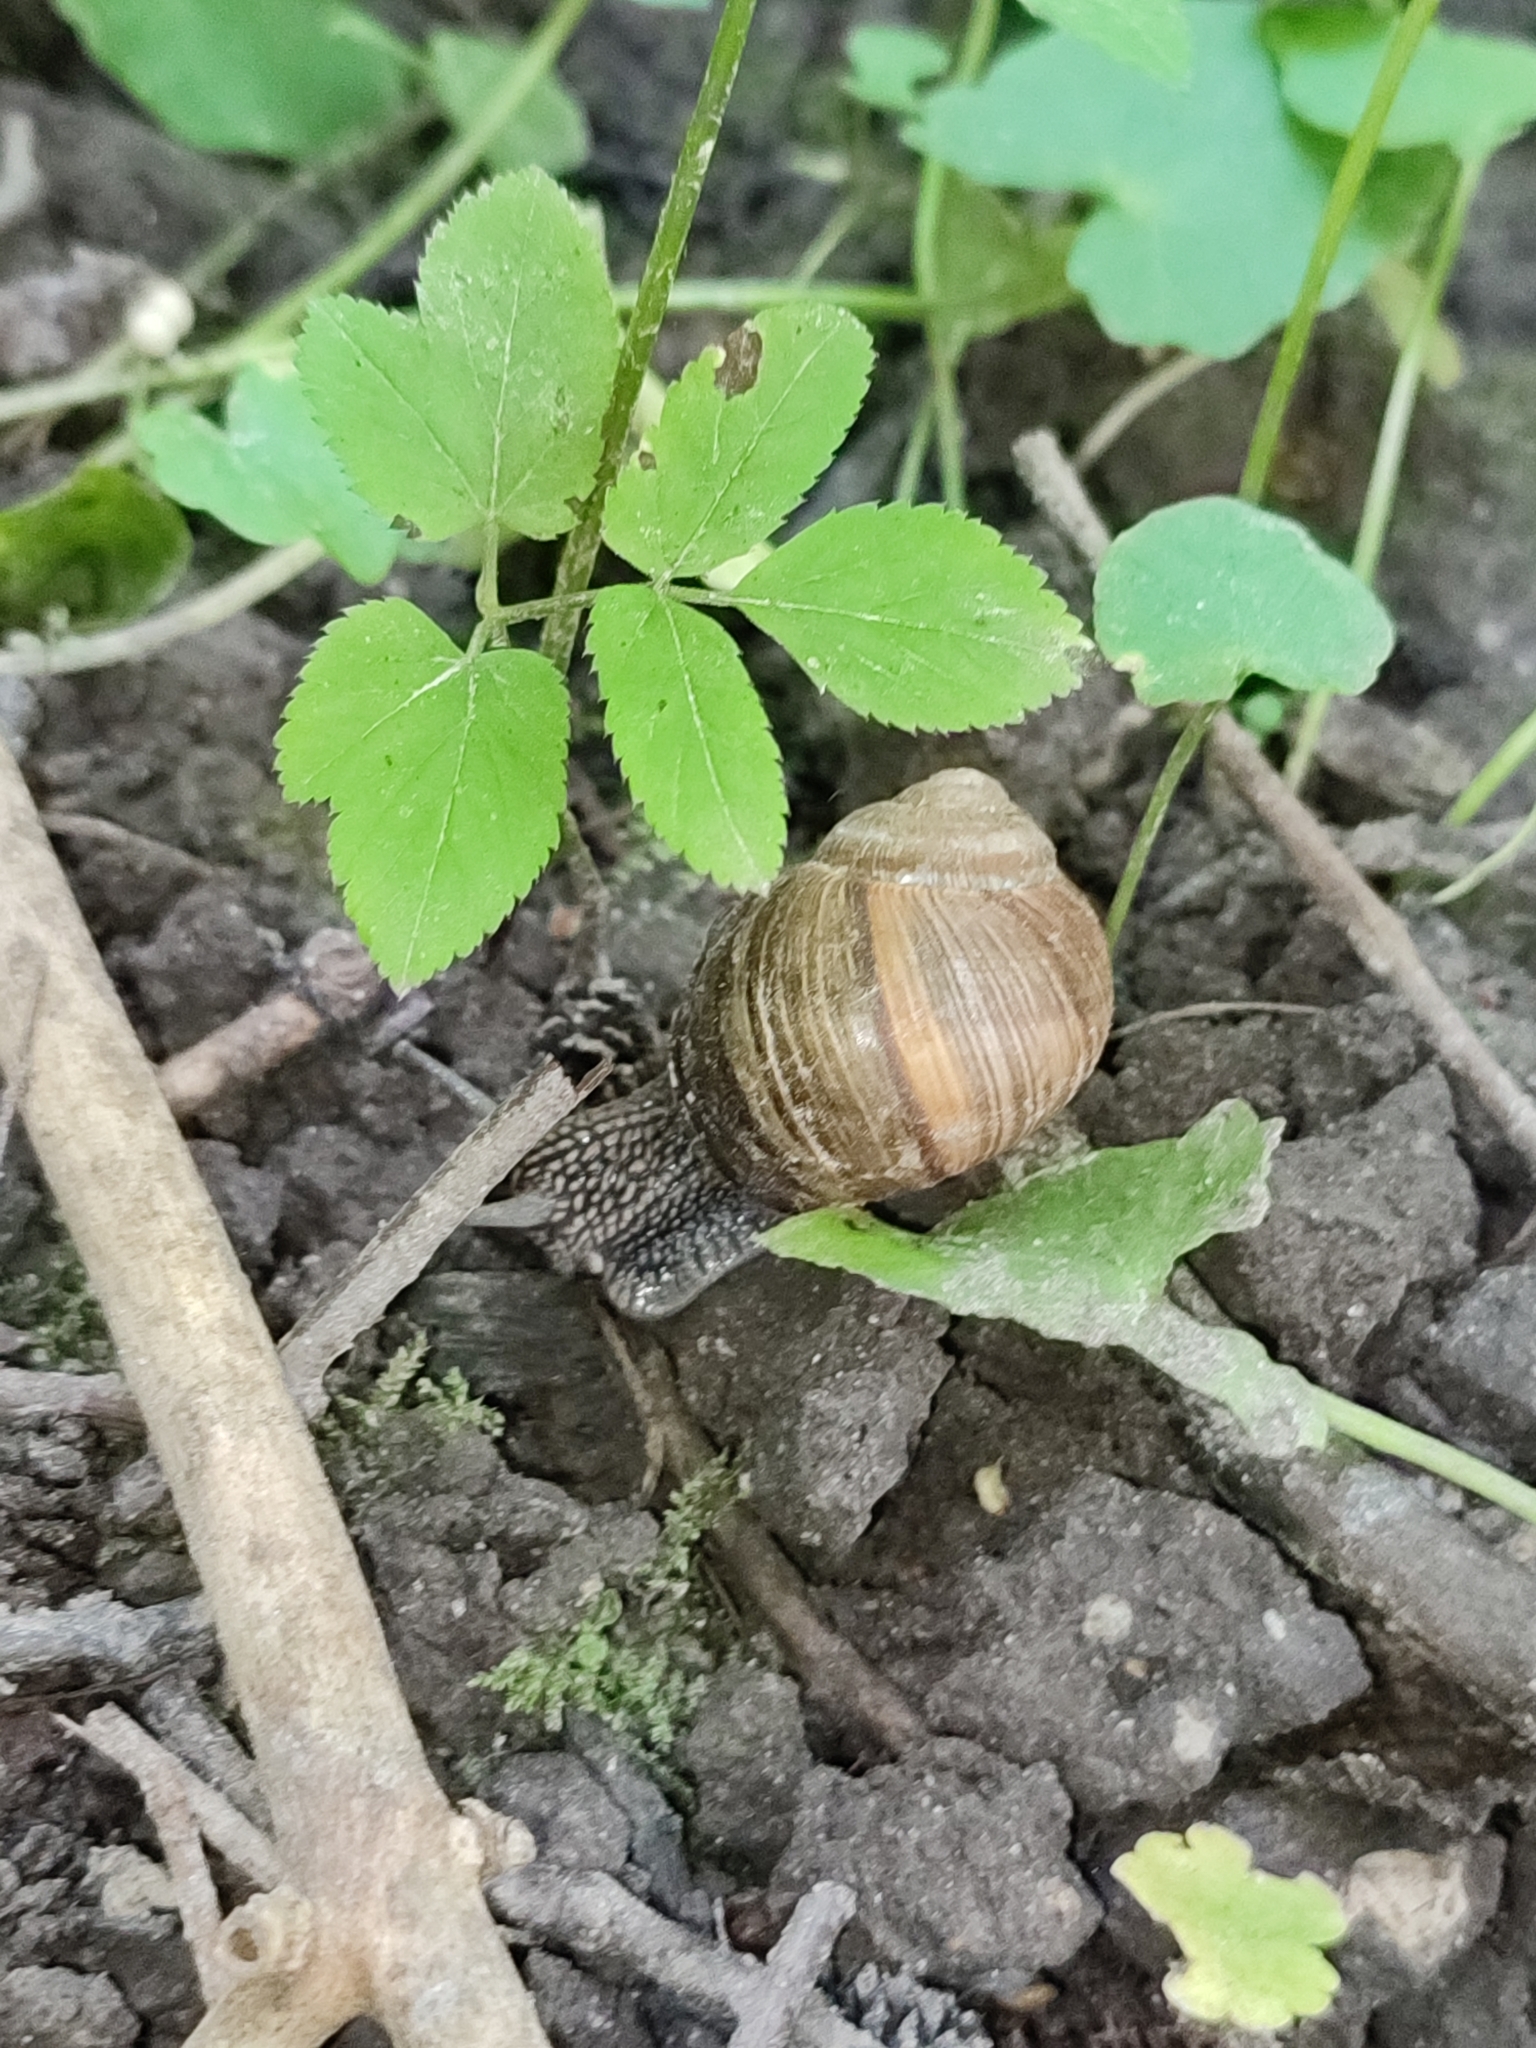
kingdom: Animalia
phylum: Mollusca
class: Gastropoda
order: Stylommatophora
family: Helicidae
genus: Helix
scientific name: Helix pomatia
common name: Roman snail
